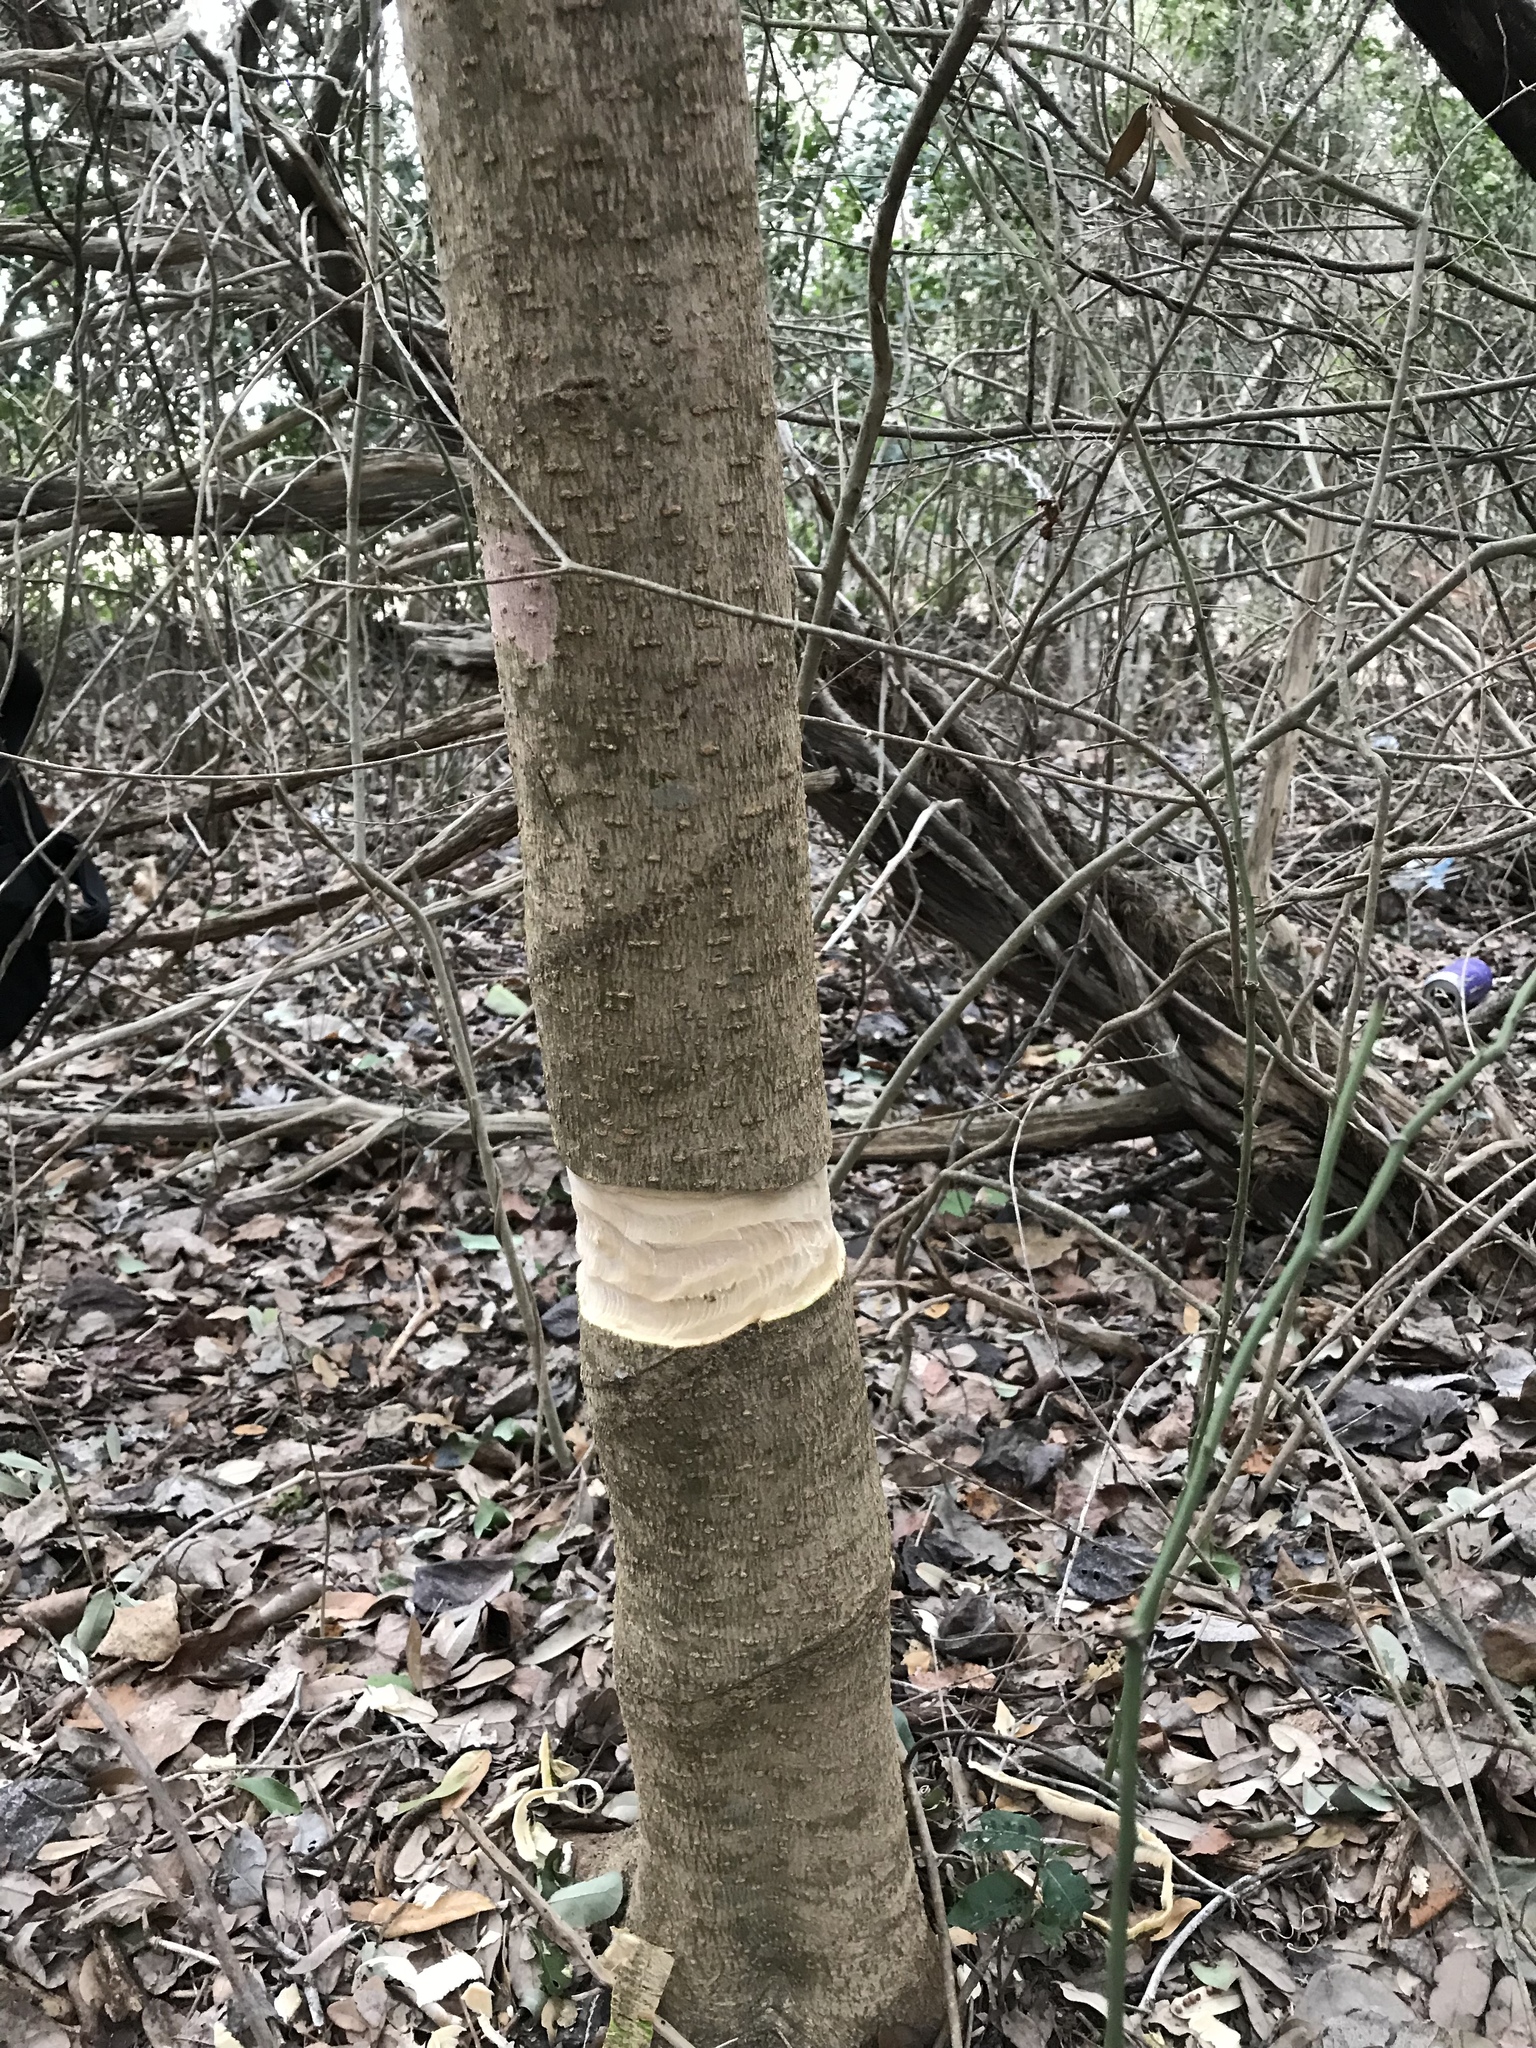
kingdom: Plantae
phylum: Tracheophyta
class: Magnoliopsida
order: Lamiales
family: Oleaceae
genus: Ligustrum
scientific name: Ligustrum lucidum
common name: Glossy privet
